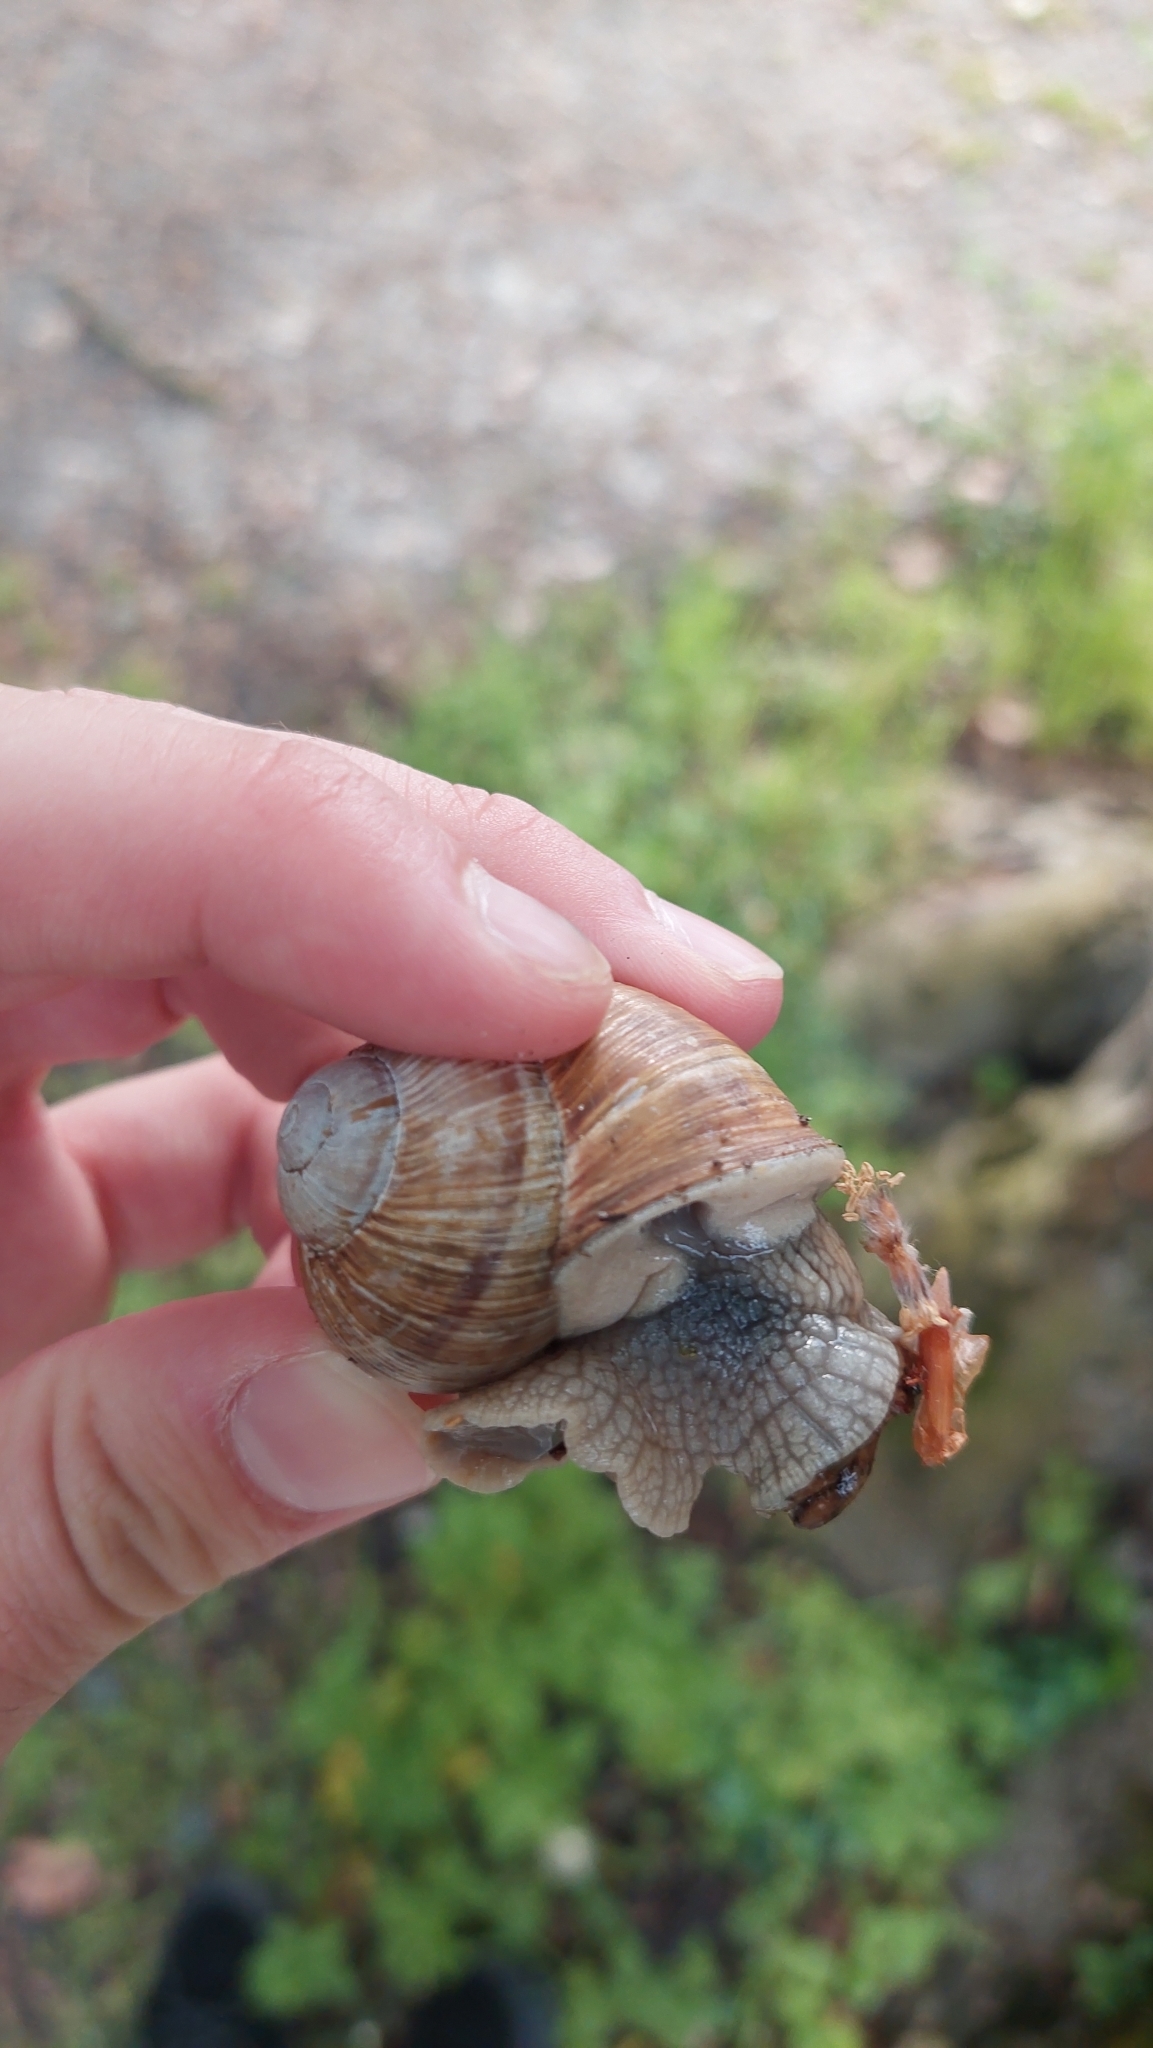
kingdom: Animalia
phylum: Mollusca
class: Gastropoda
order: Stylommatophora
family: Helicidae
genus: Helix
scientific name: Helix pomatia
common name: Roman snail
